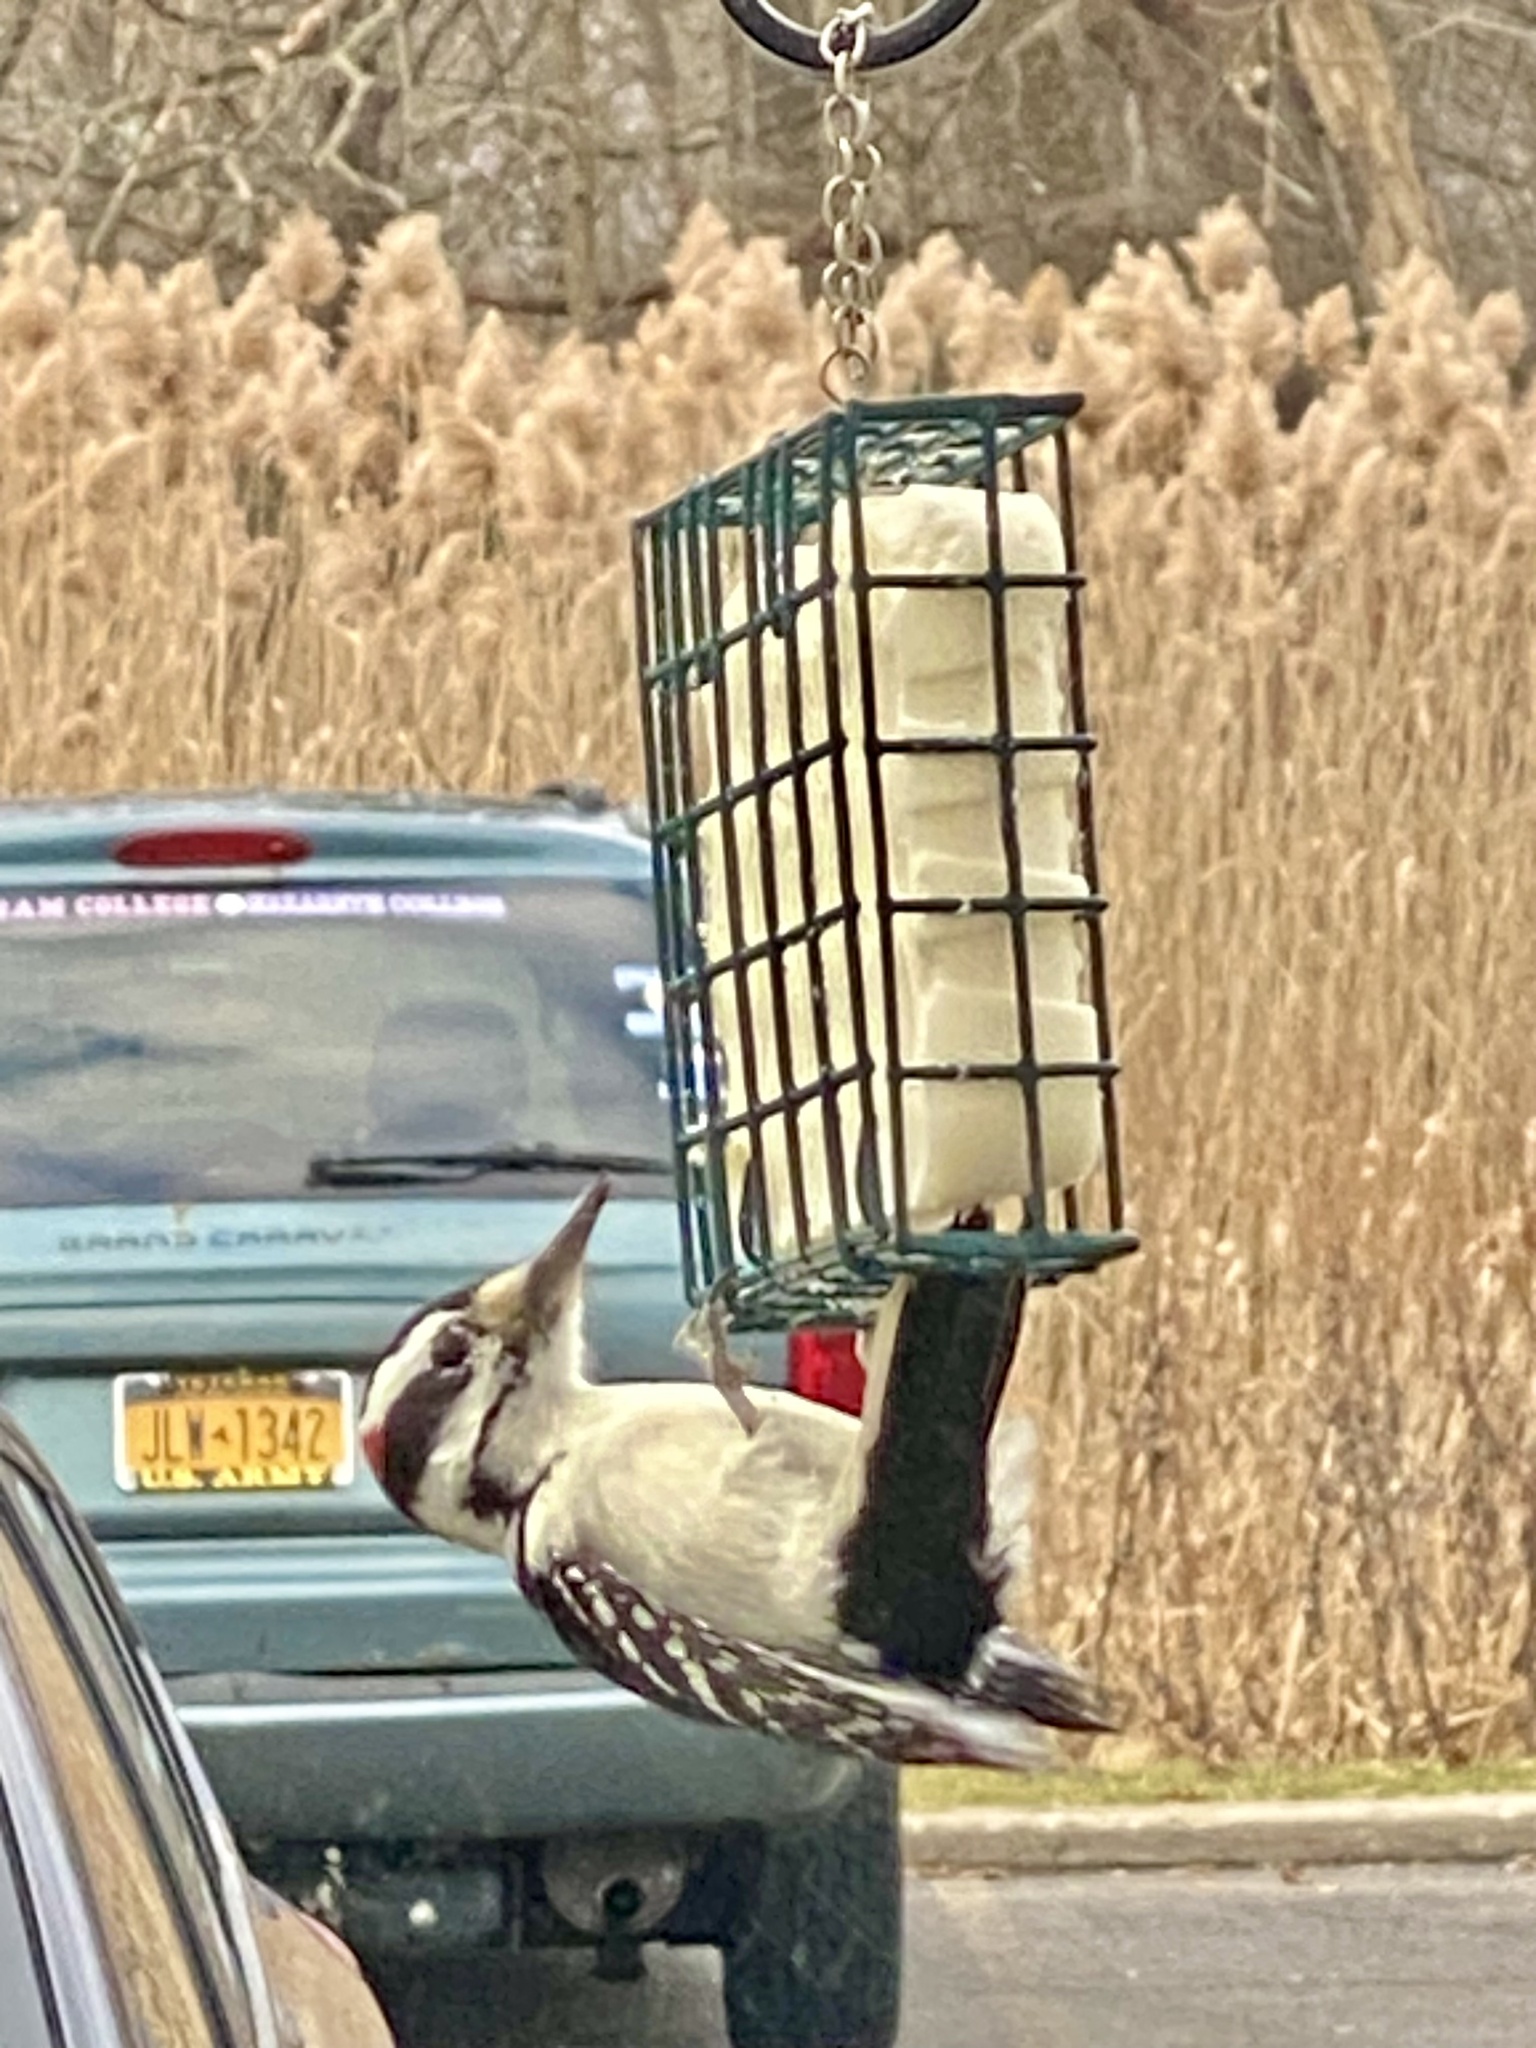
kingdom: Animalia
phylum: Chordata
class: Aves
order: Piciformes
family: Picidae
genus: Leuconotopicus
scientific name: Leuconotopicus villosus
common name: Hairy woodpecker
